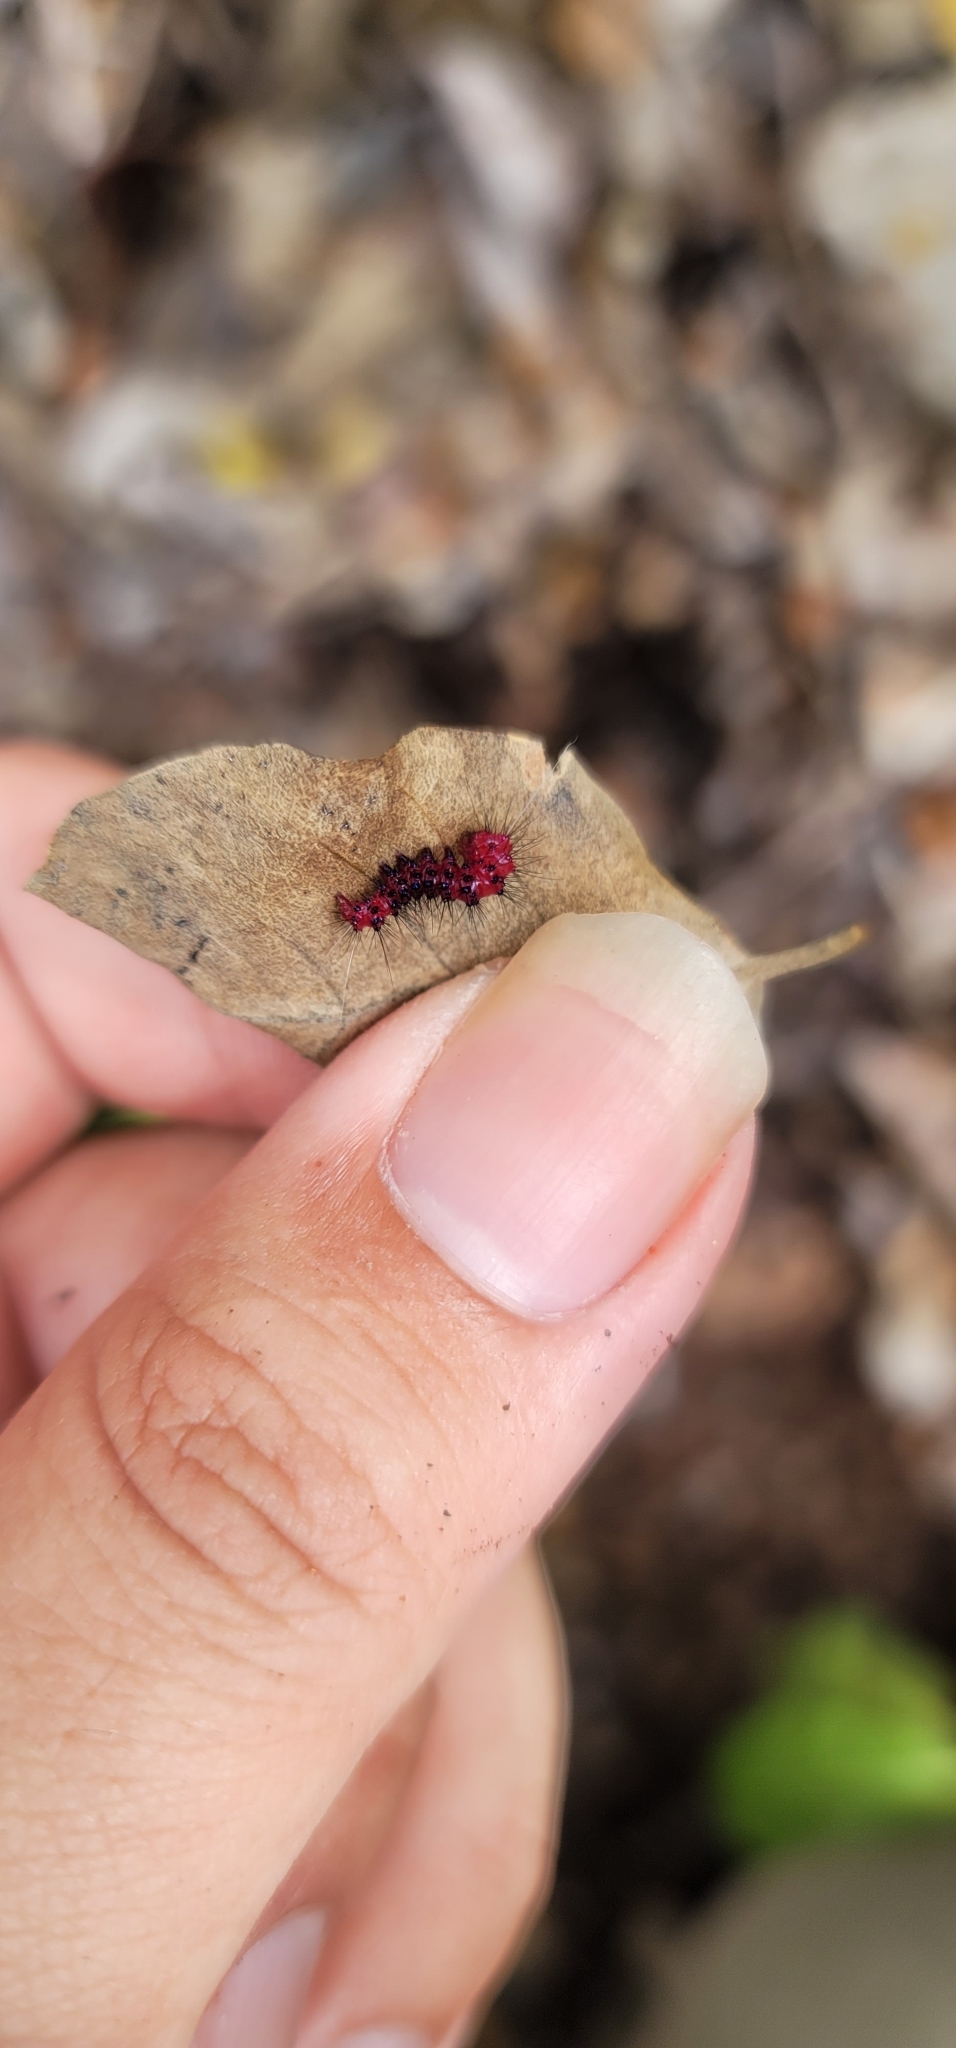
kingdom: Animalia
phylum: Arthropoda
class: Insecta
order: Lepidoptera
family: Erebidae
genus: Composia
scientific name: Composia credula
